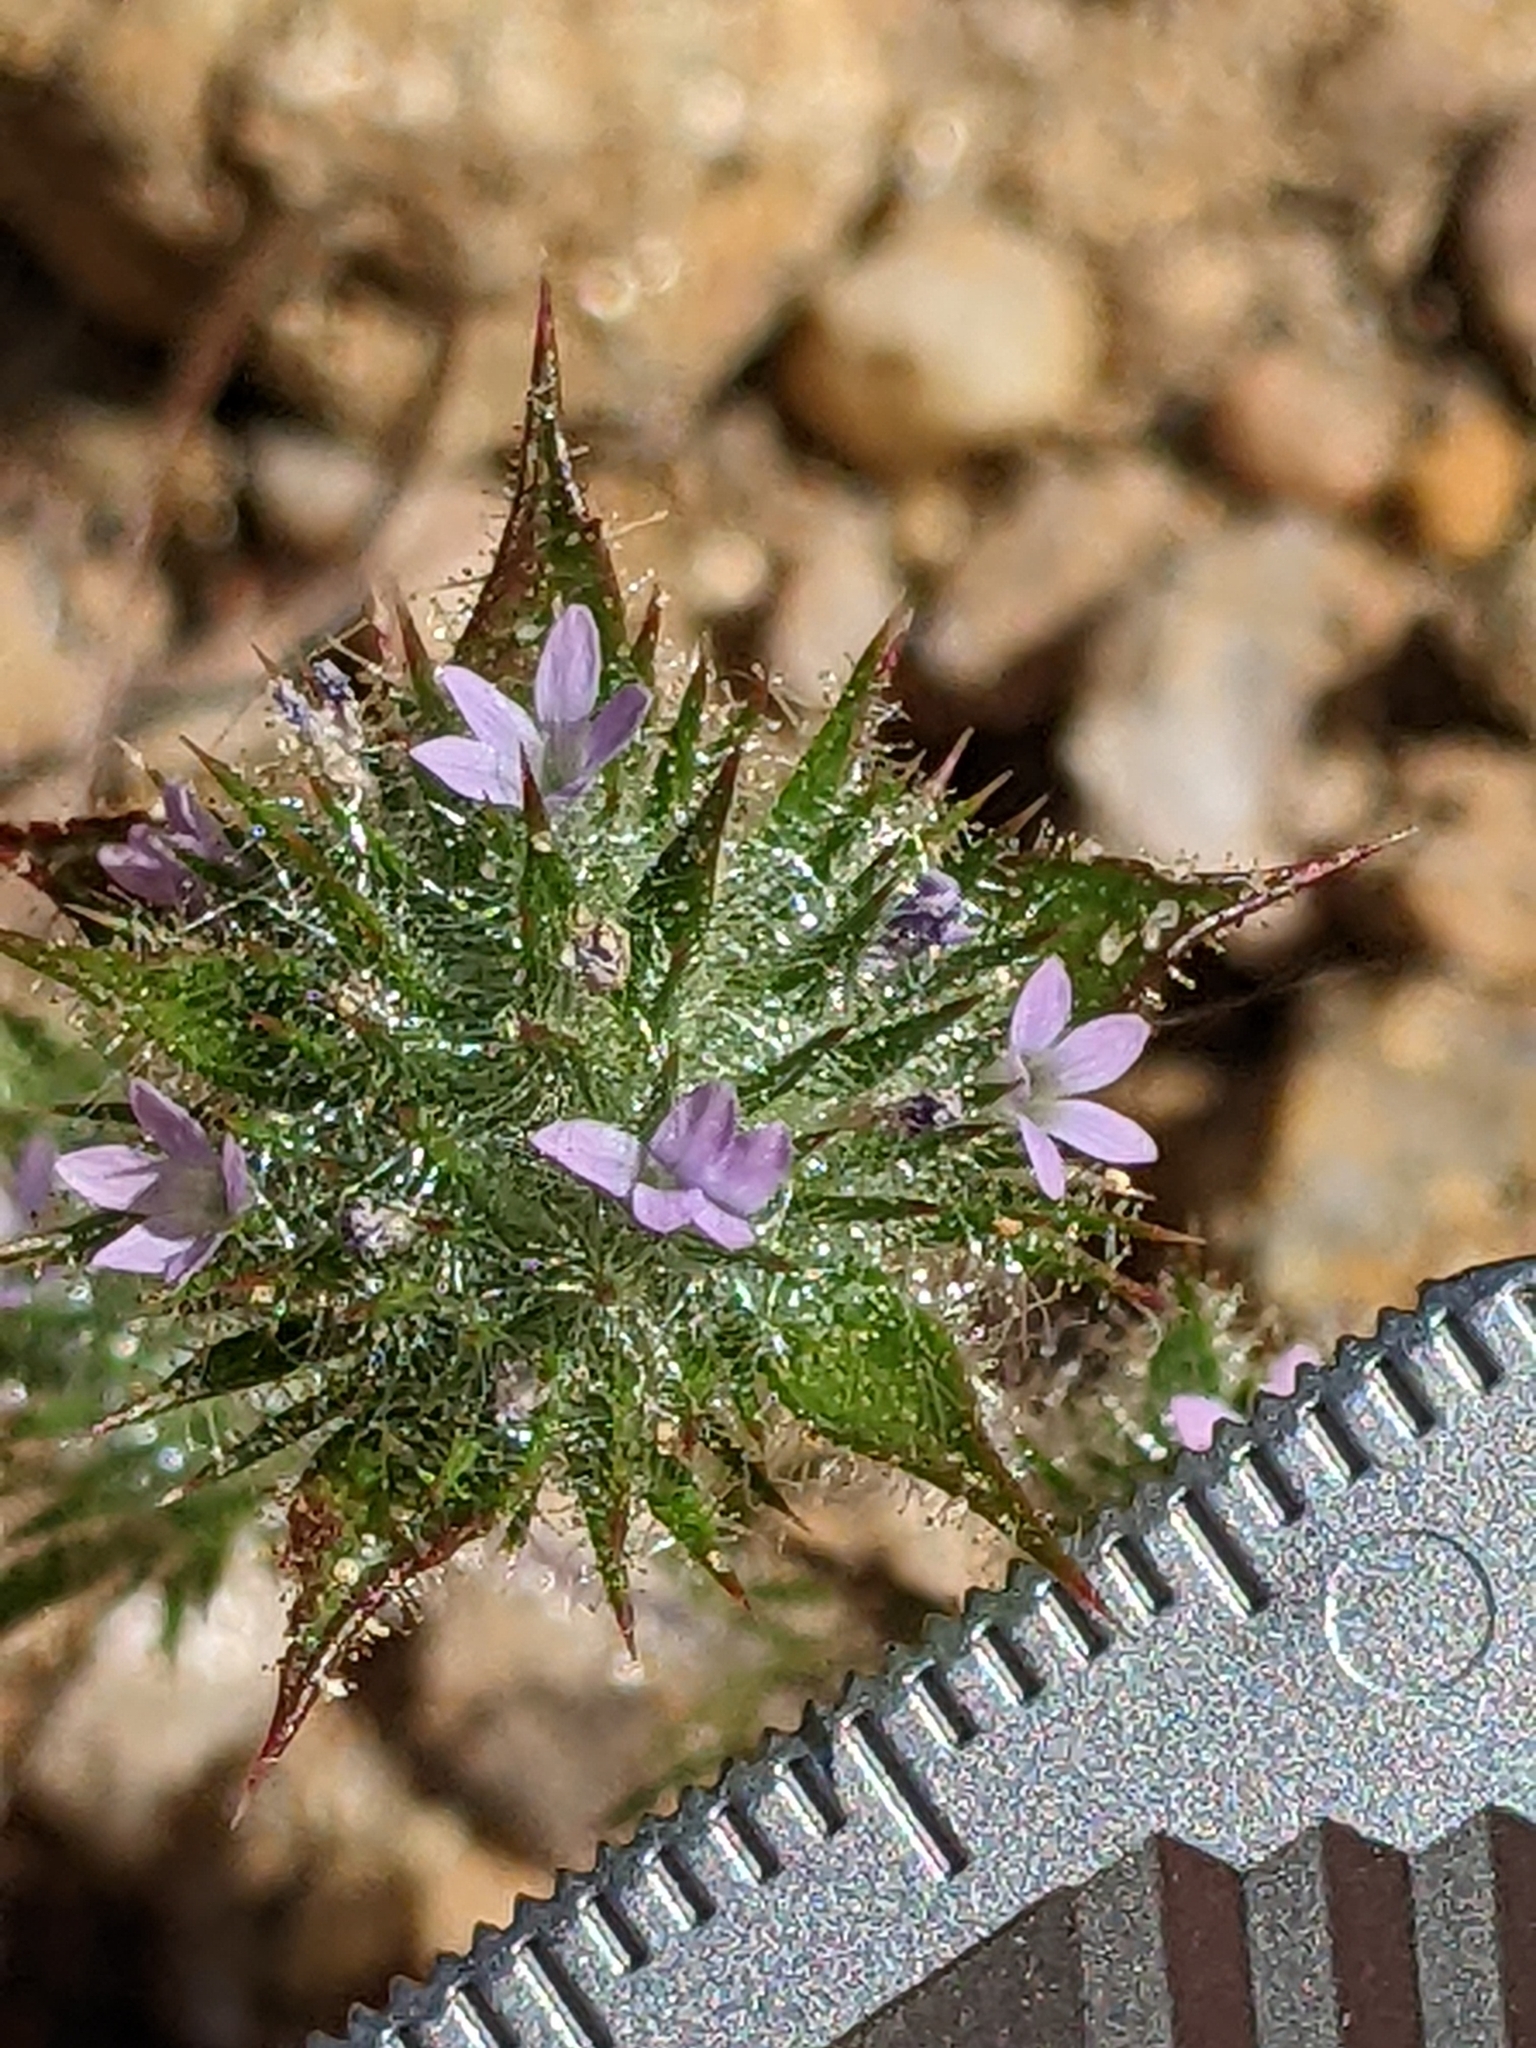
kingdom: Plantae
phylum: Tracheophyta
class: Magnoliopsida
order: Ericales
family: Polemoniaceae
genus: Navarretia
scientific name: Navarretia mellita
